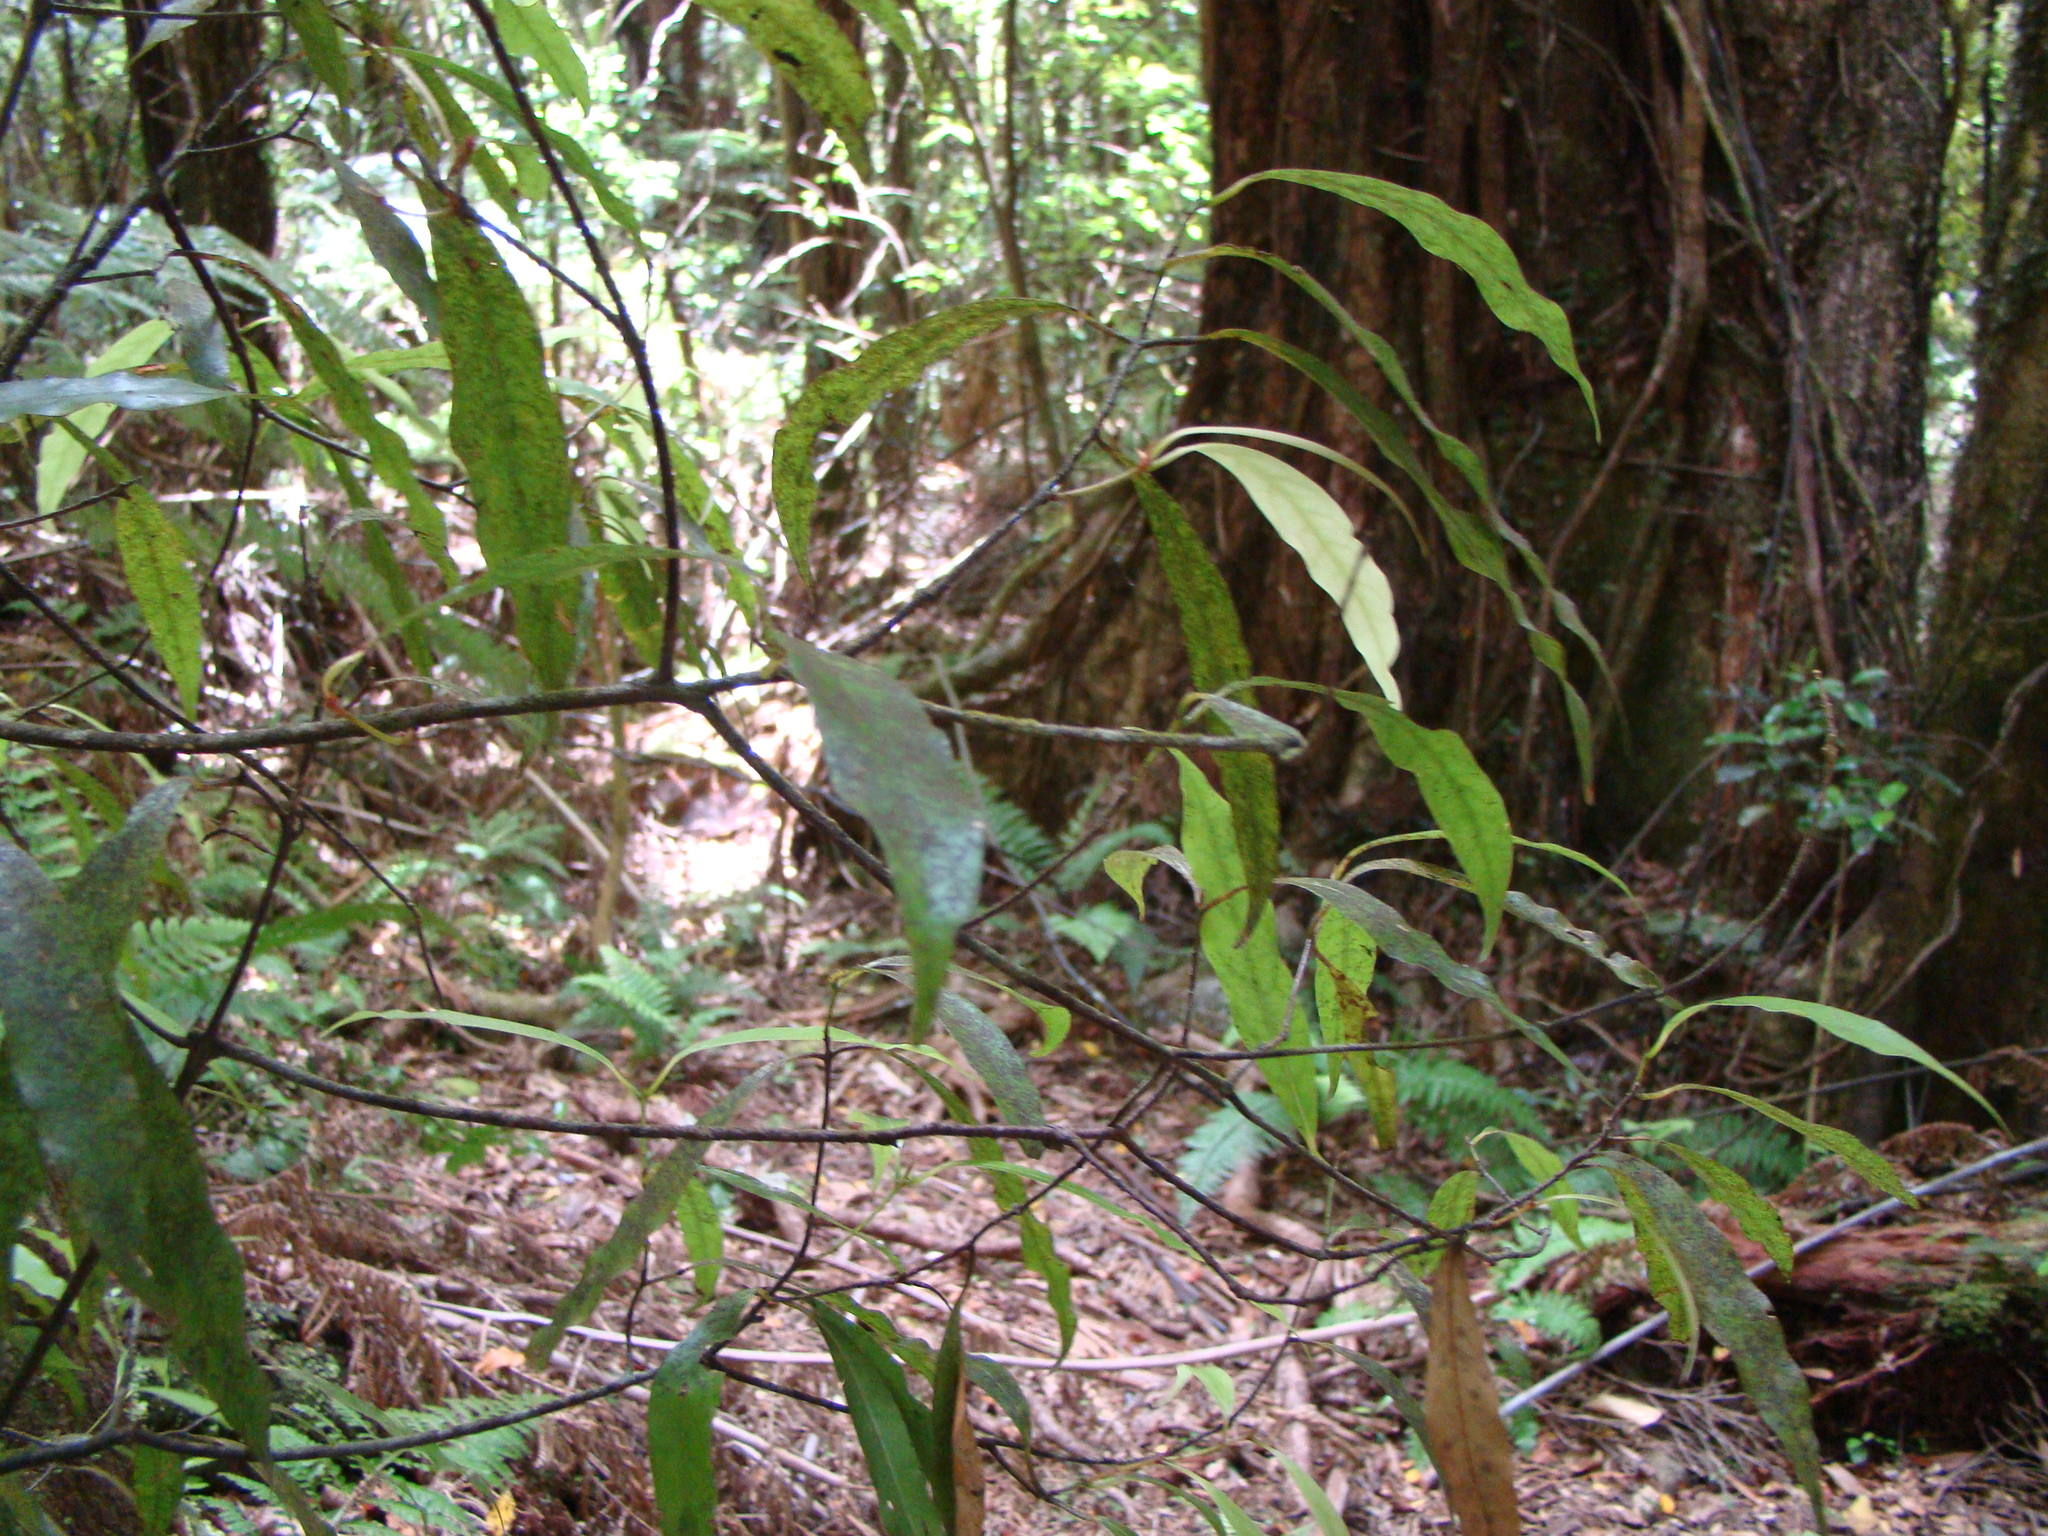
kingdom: Plantae
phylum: Tracheophyta
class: Magnoliopsida
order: Laurales
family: Lauraceae
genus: Beilschmiedia
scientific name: Beilschmiedia tawa
